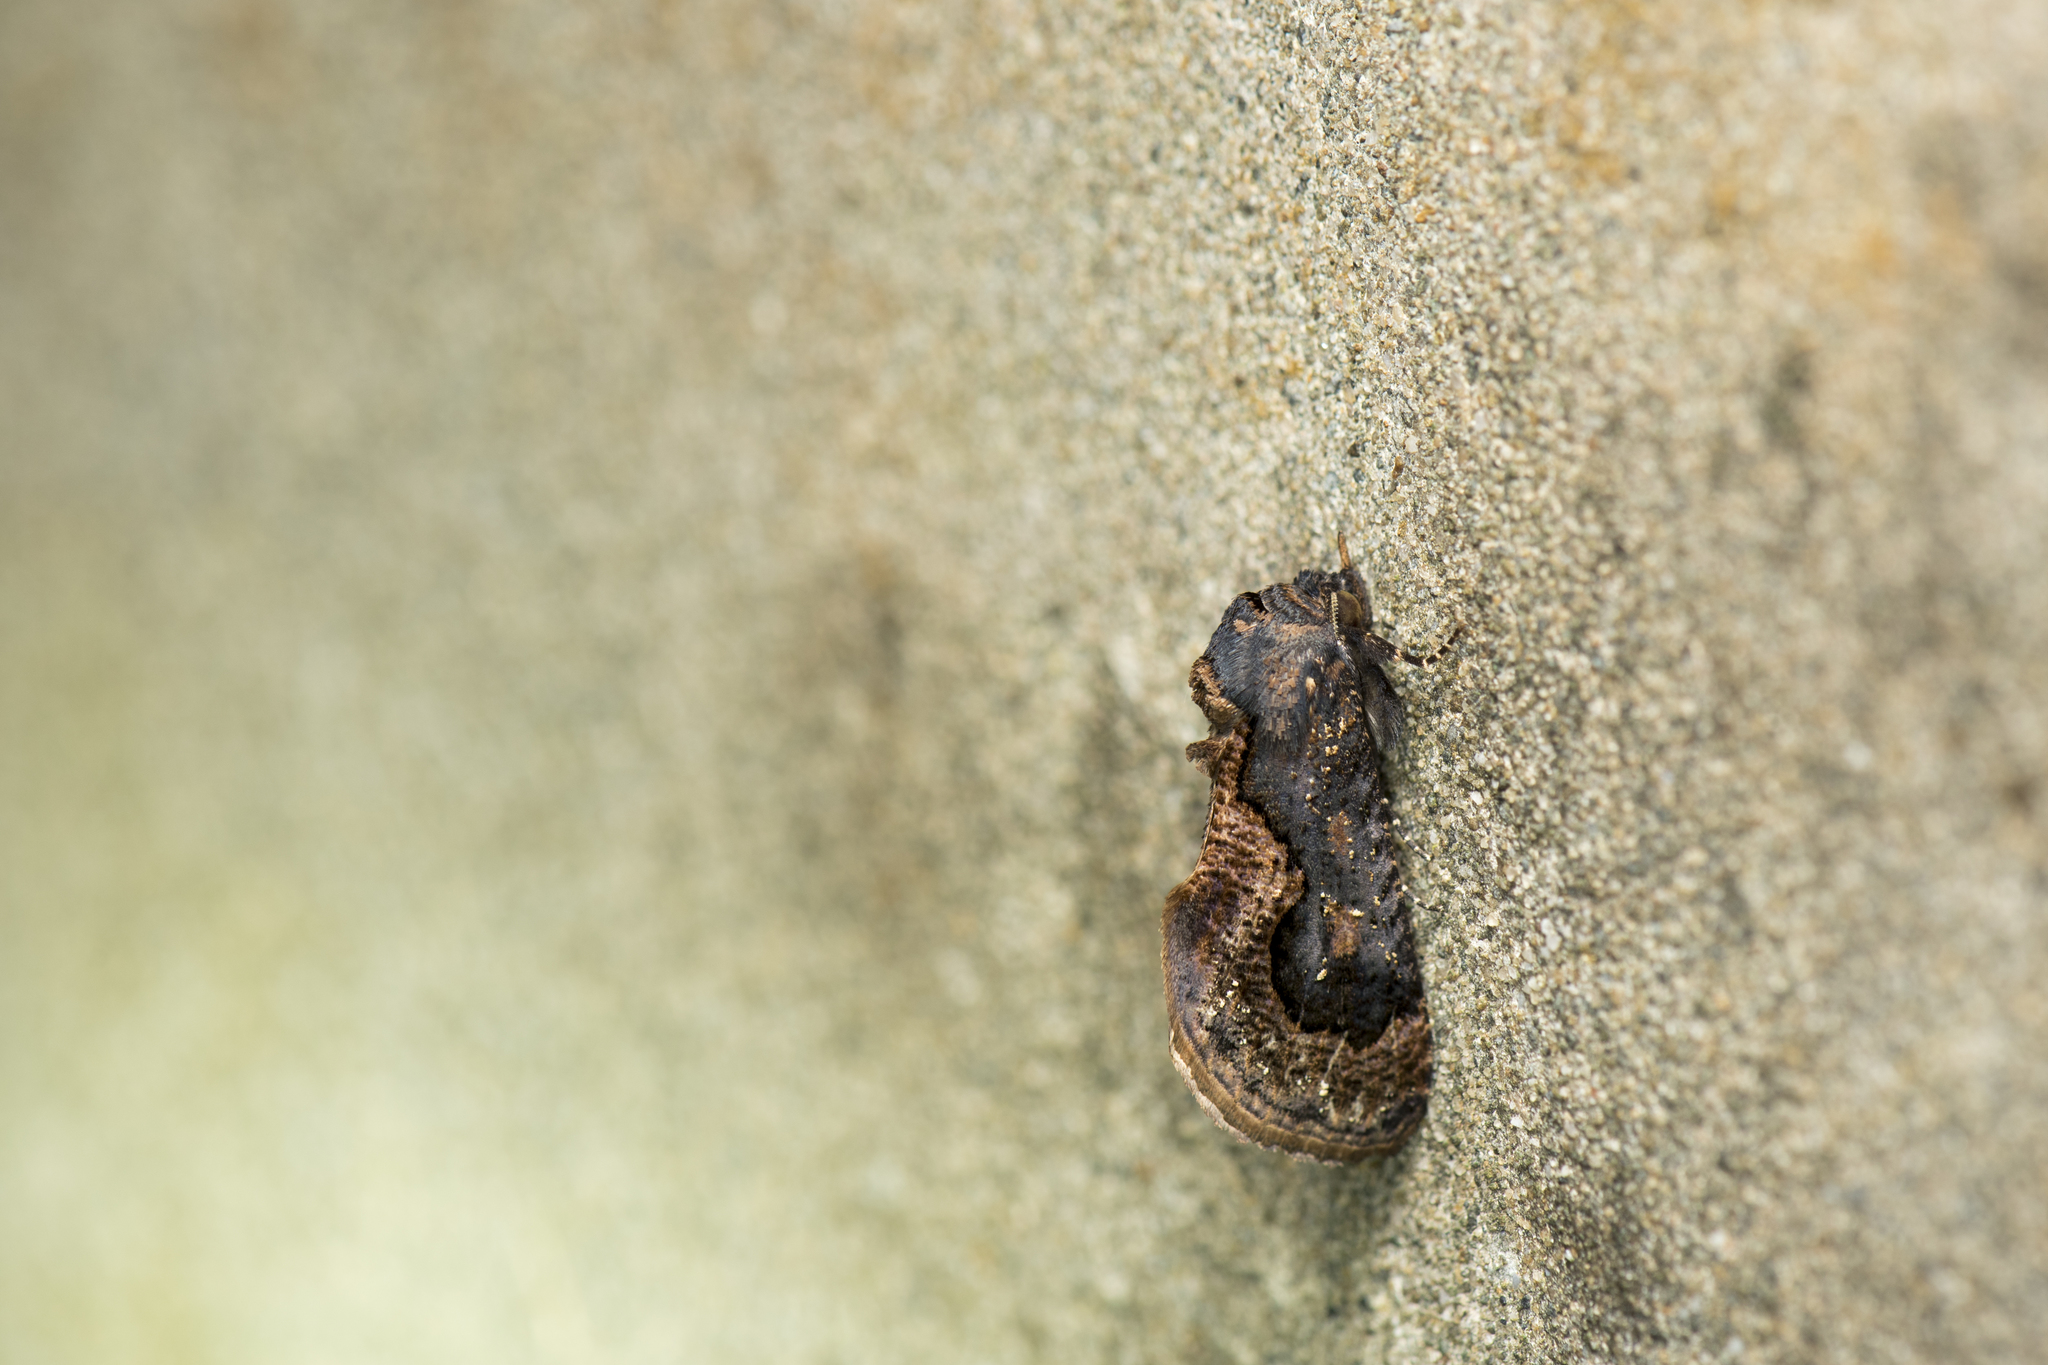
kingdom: Animalia
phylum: Arthropoda
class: Insecta
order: Lepidoptera
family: Erebidae
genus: Batracharta
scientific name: Batracharta divisa
